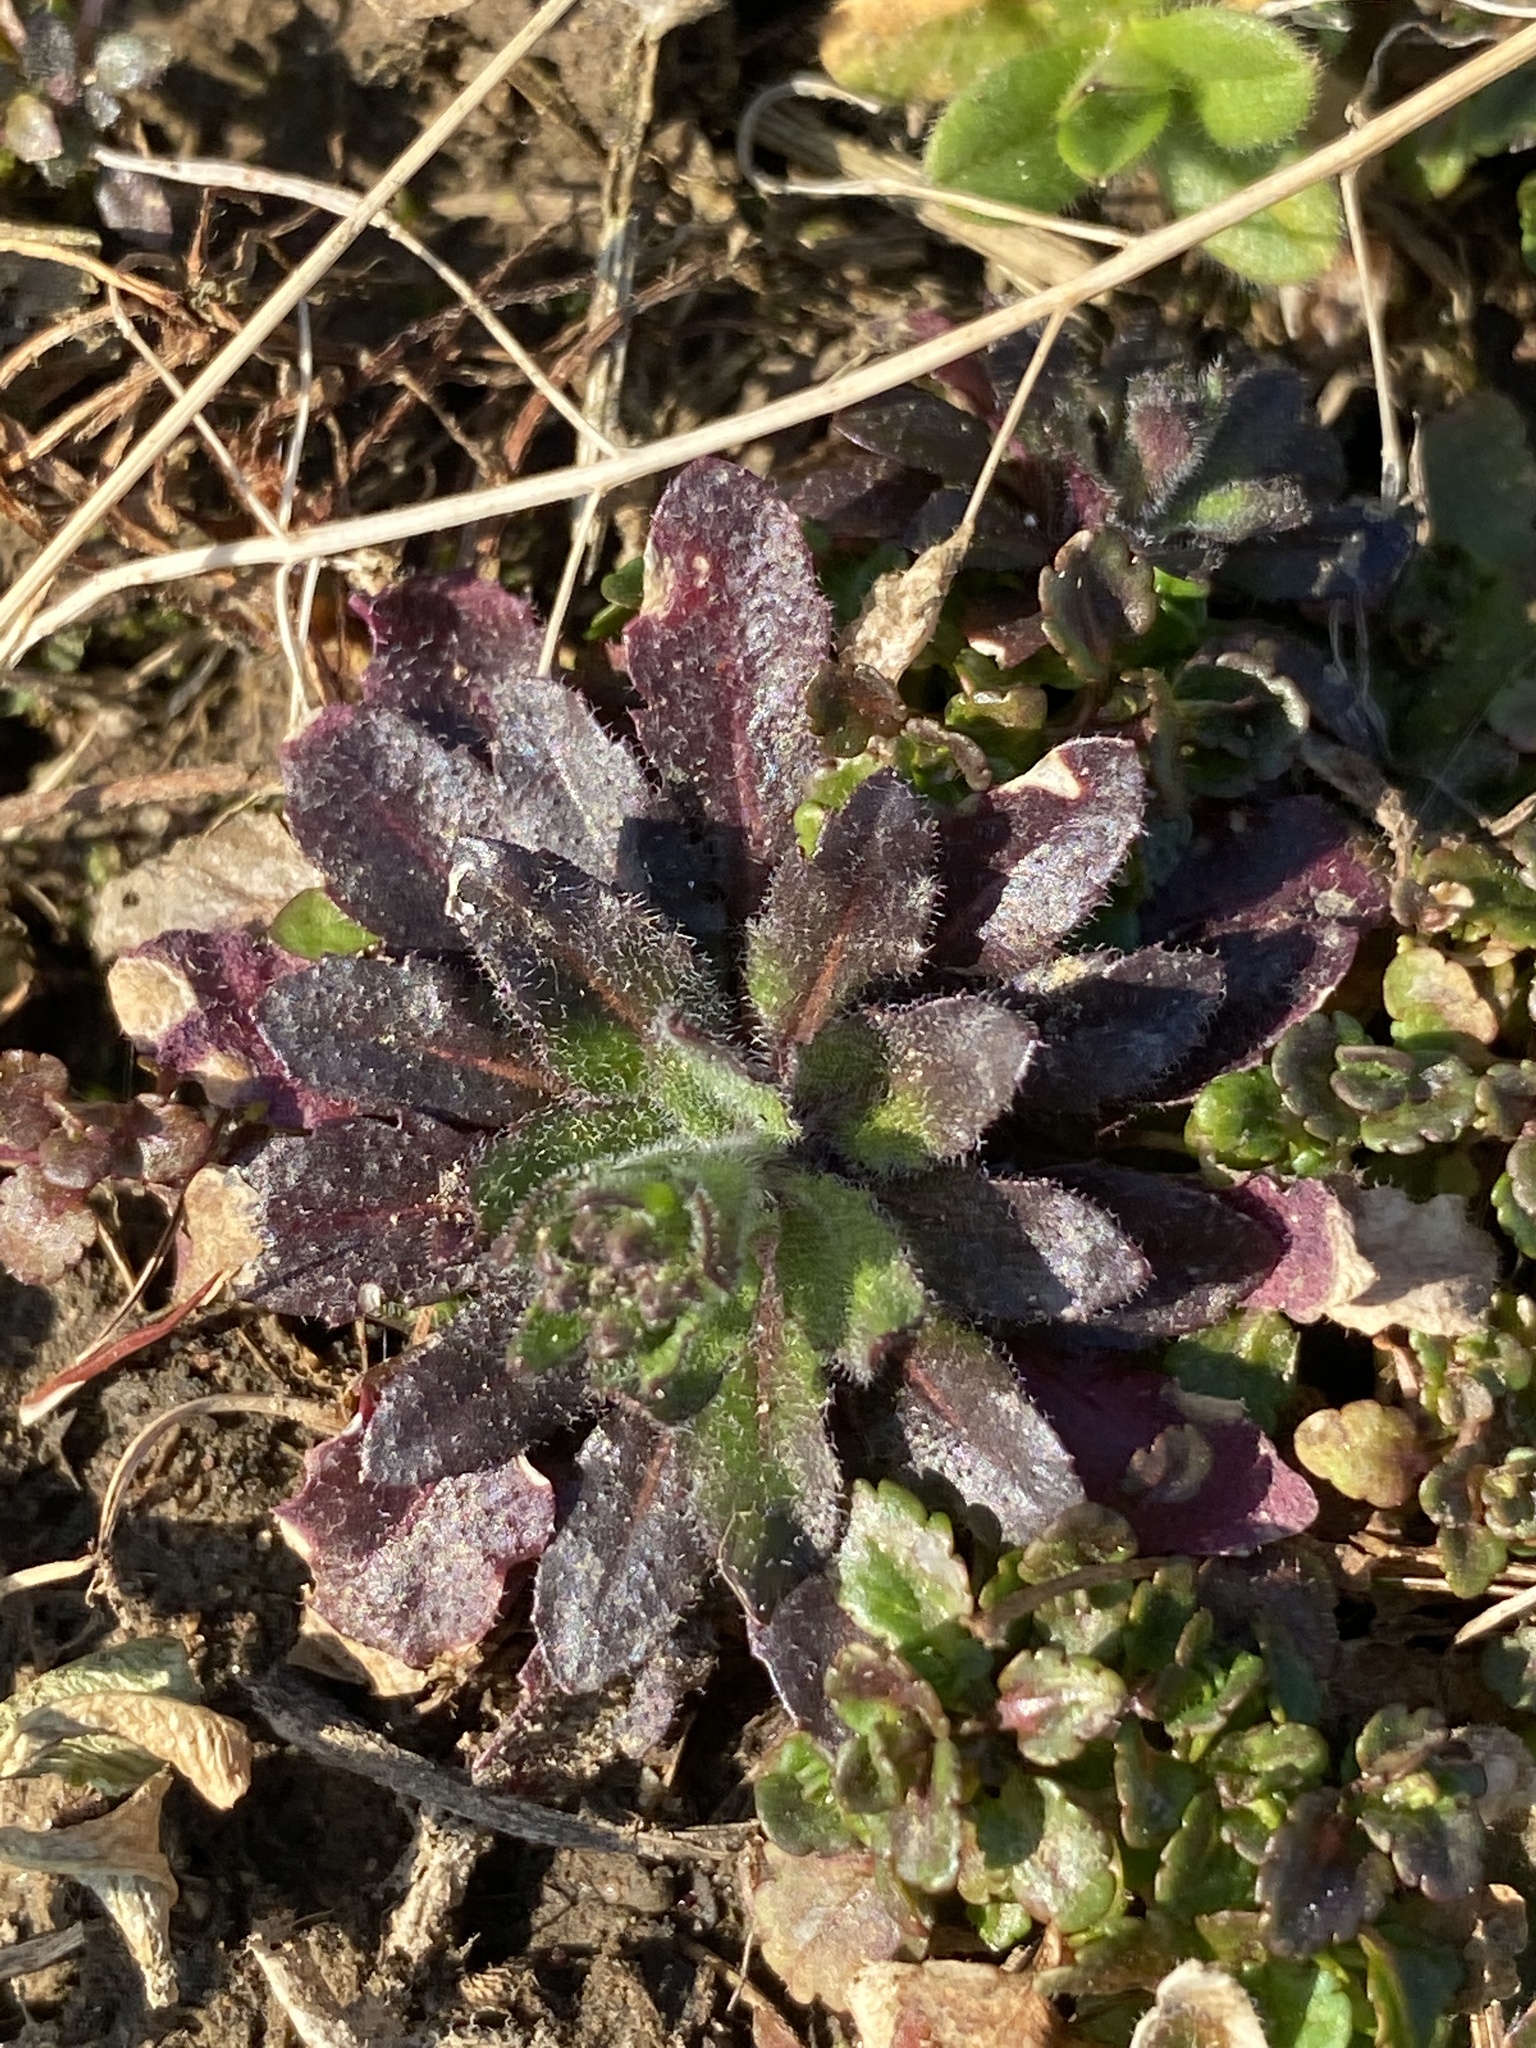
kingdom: Plantae
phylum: Tracheophyta
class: Magnoliopsida
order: Brassicales
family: Brassicaceae
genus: Arabidopsis
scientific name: Arabidopsis thaliana
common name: Thale cress
